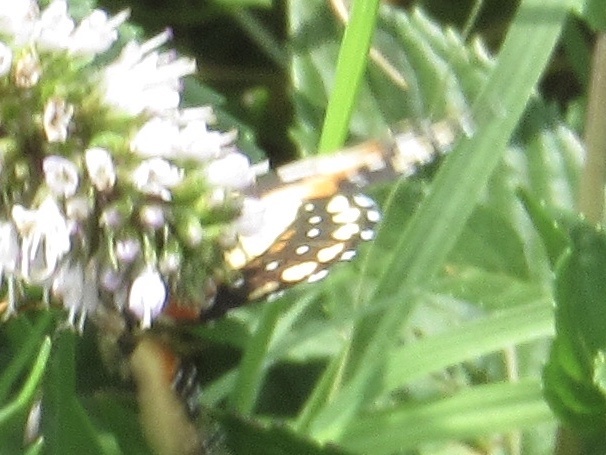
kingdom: Animalia
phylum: Arthropoda
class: Insecta
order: Lepidoptera
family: Nymphalidae
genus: Chlosyne
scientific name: Chlosyne lacinia
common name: Bordered patch
